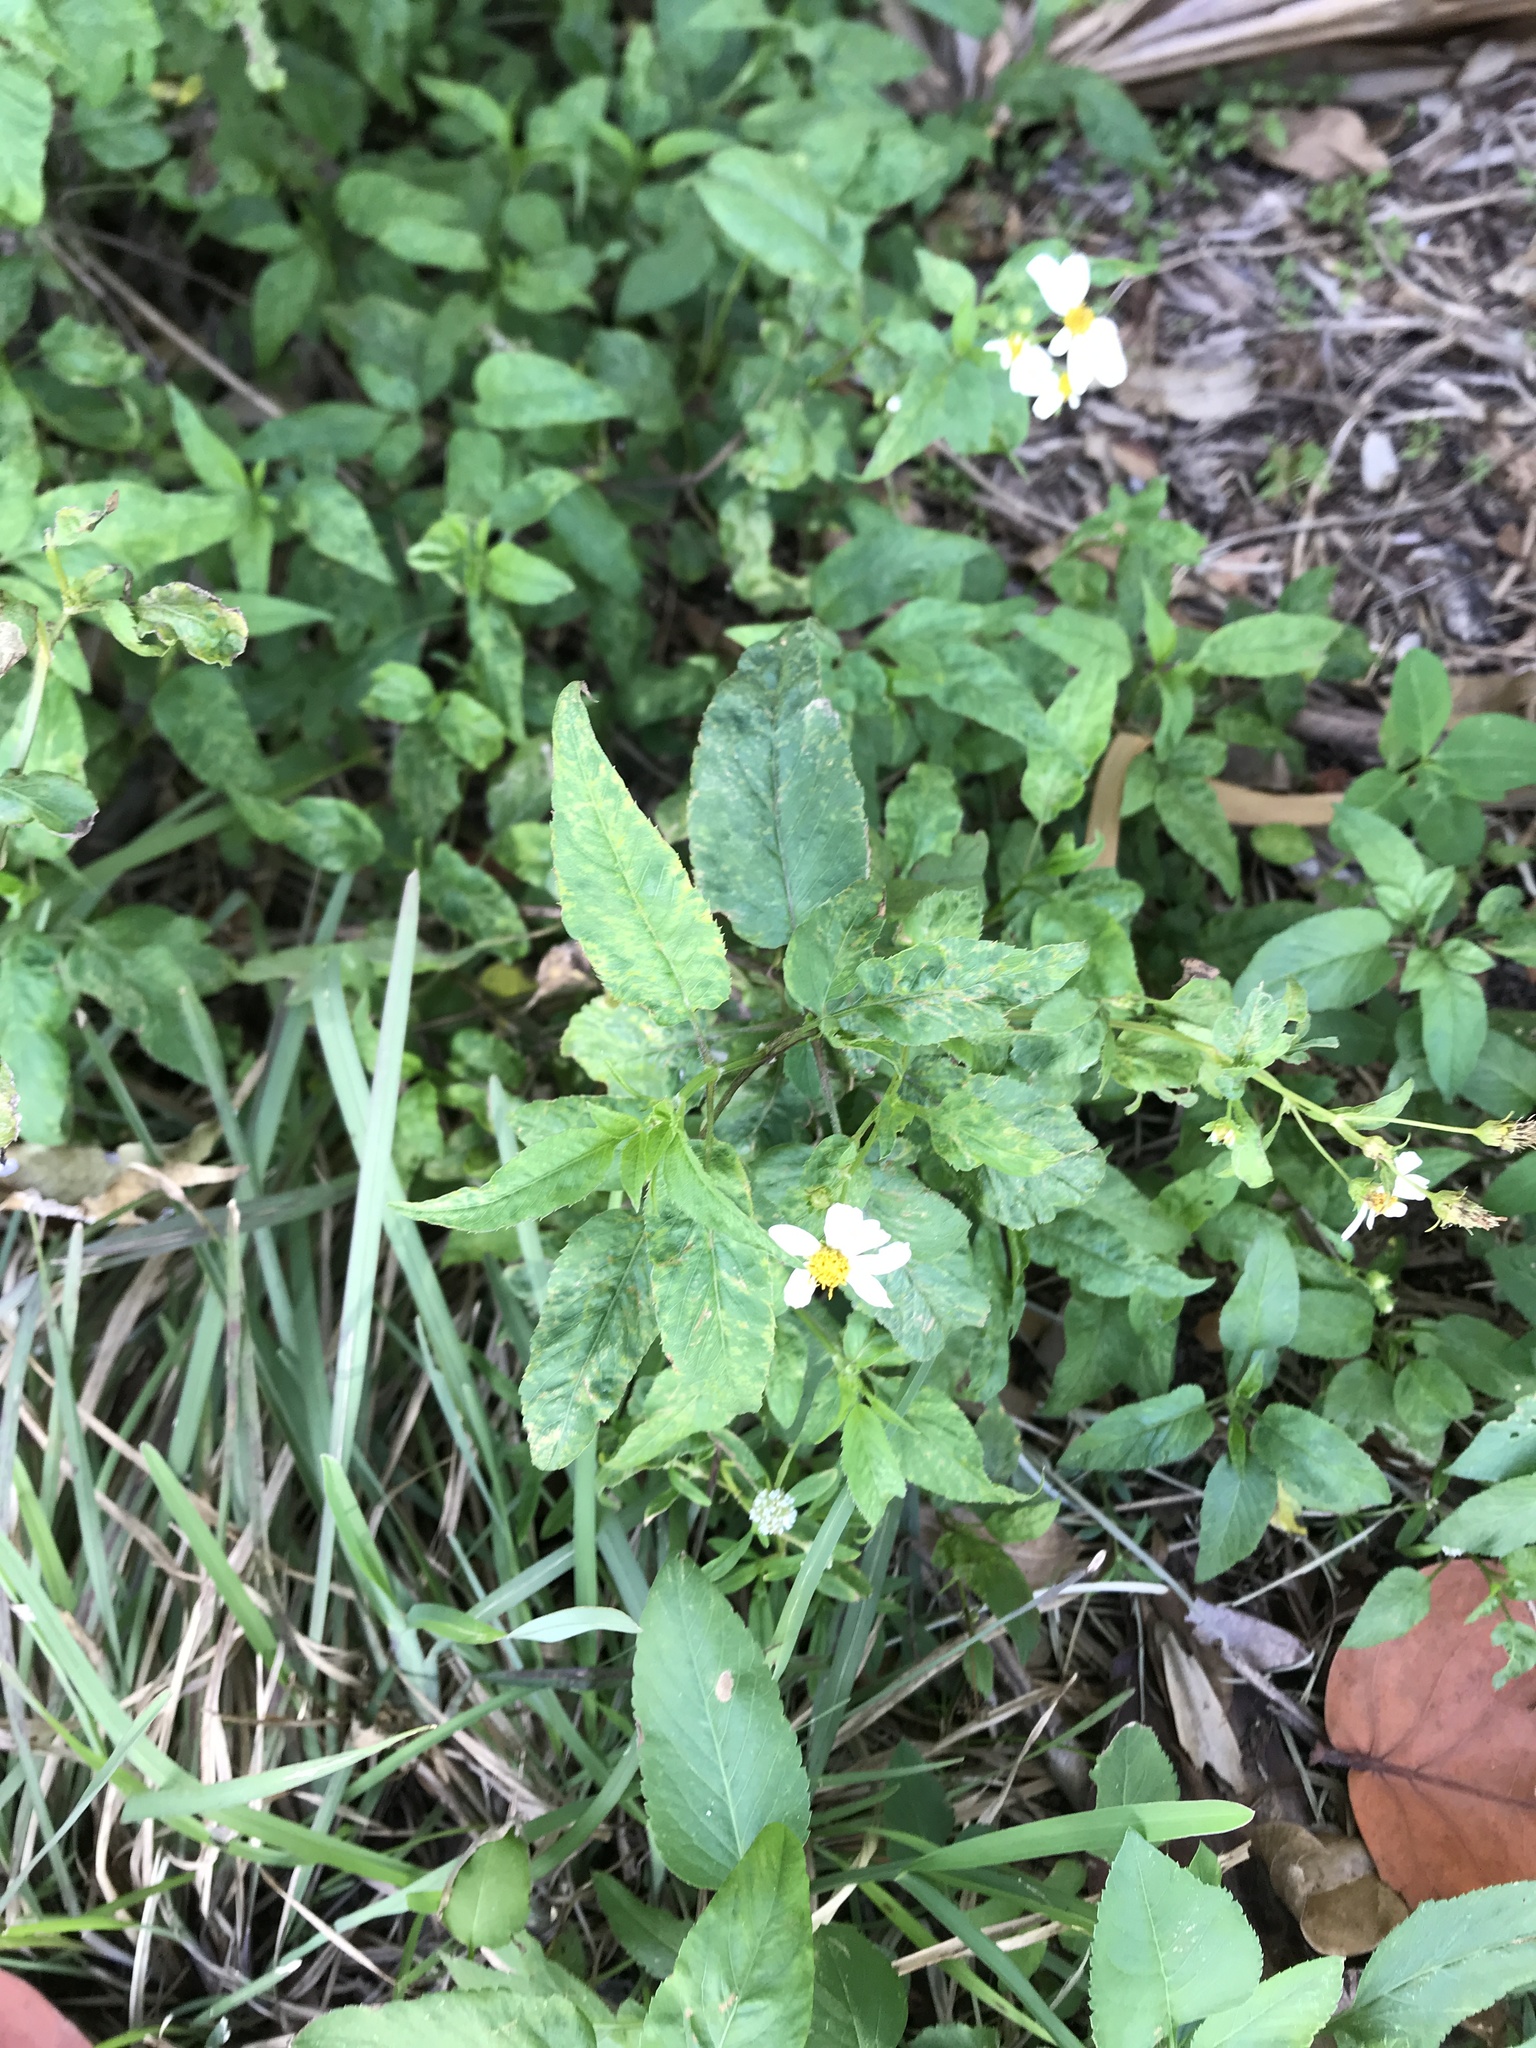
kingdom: Plantae
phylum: Tracheophyta
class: Magnoliopsida
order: Asterales
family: Asteraceae
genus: Bidens
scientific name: Bidens alba
